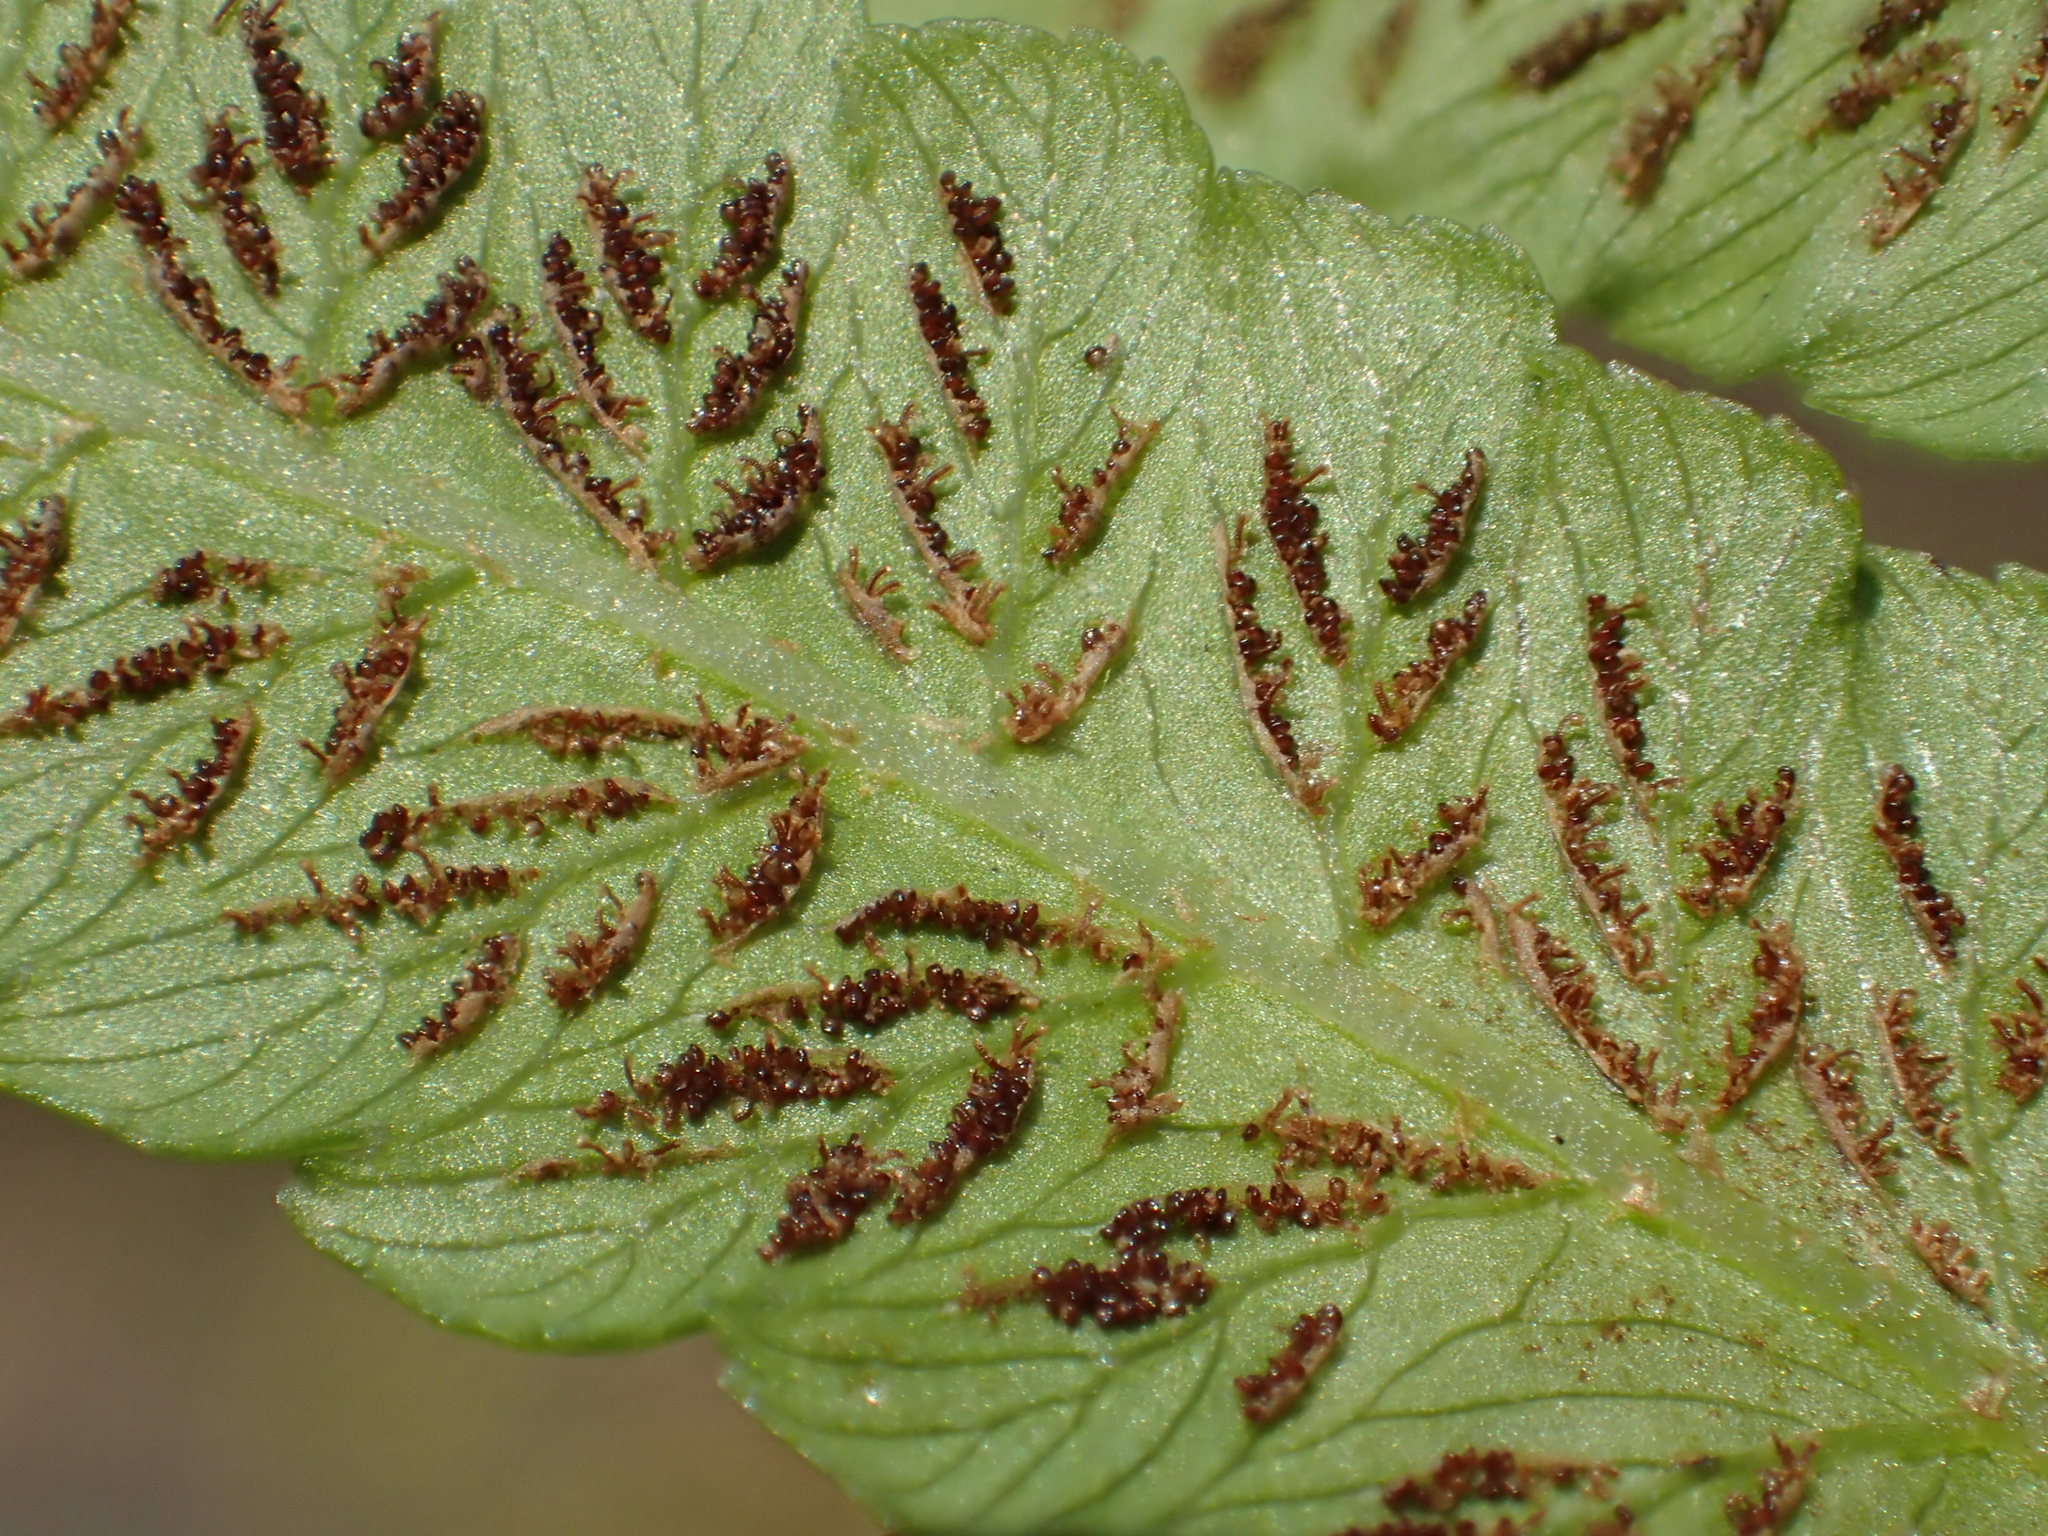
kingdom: Plantae
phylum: Tracheophyta
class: Polypodiopsida
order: Polypodiales
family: Athyriaceae
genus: Diplazium
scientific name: Diplazium esculentum
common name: Vegetable fern
